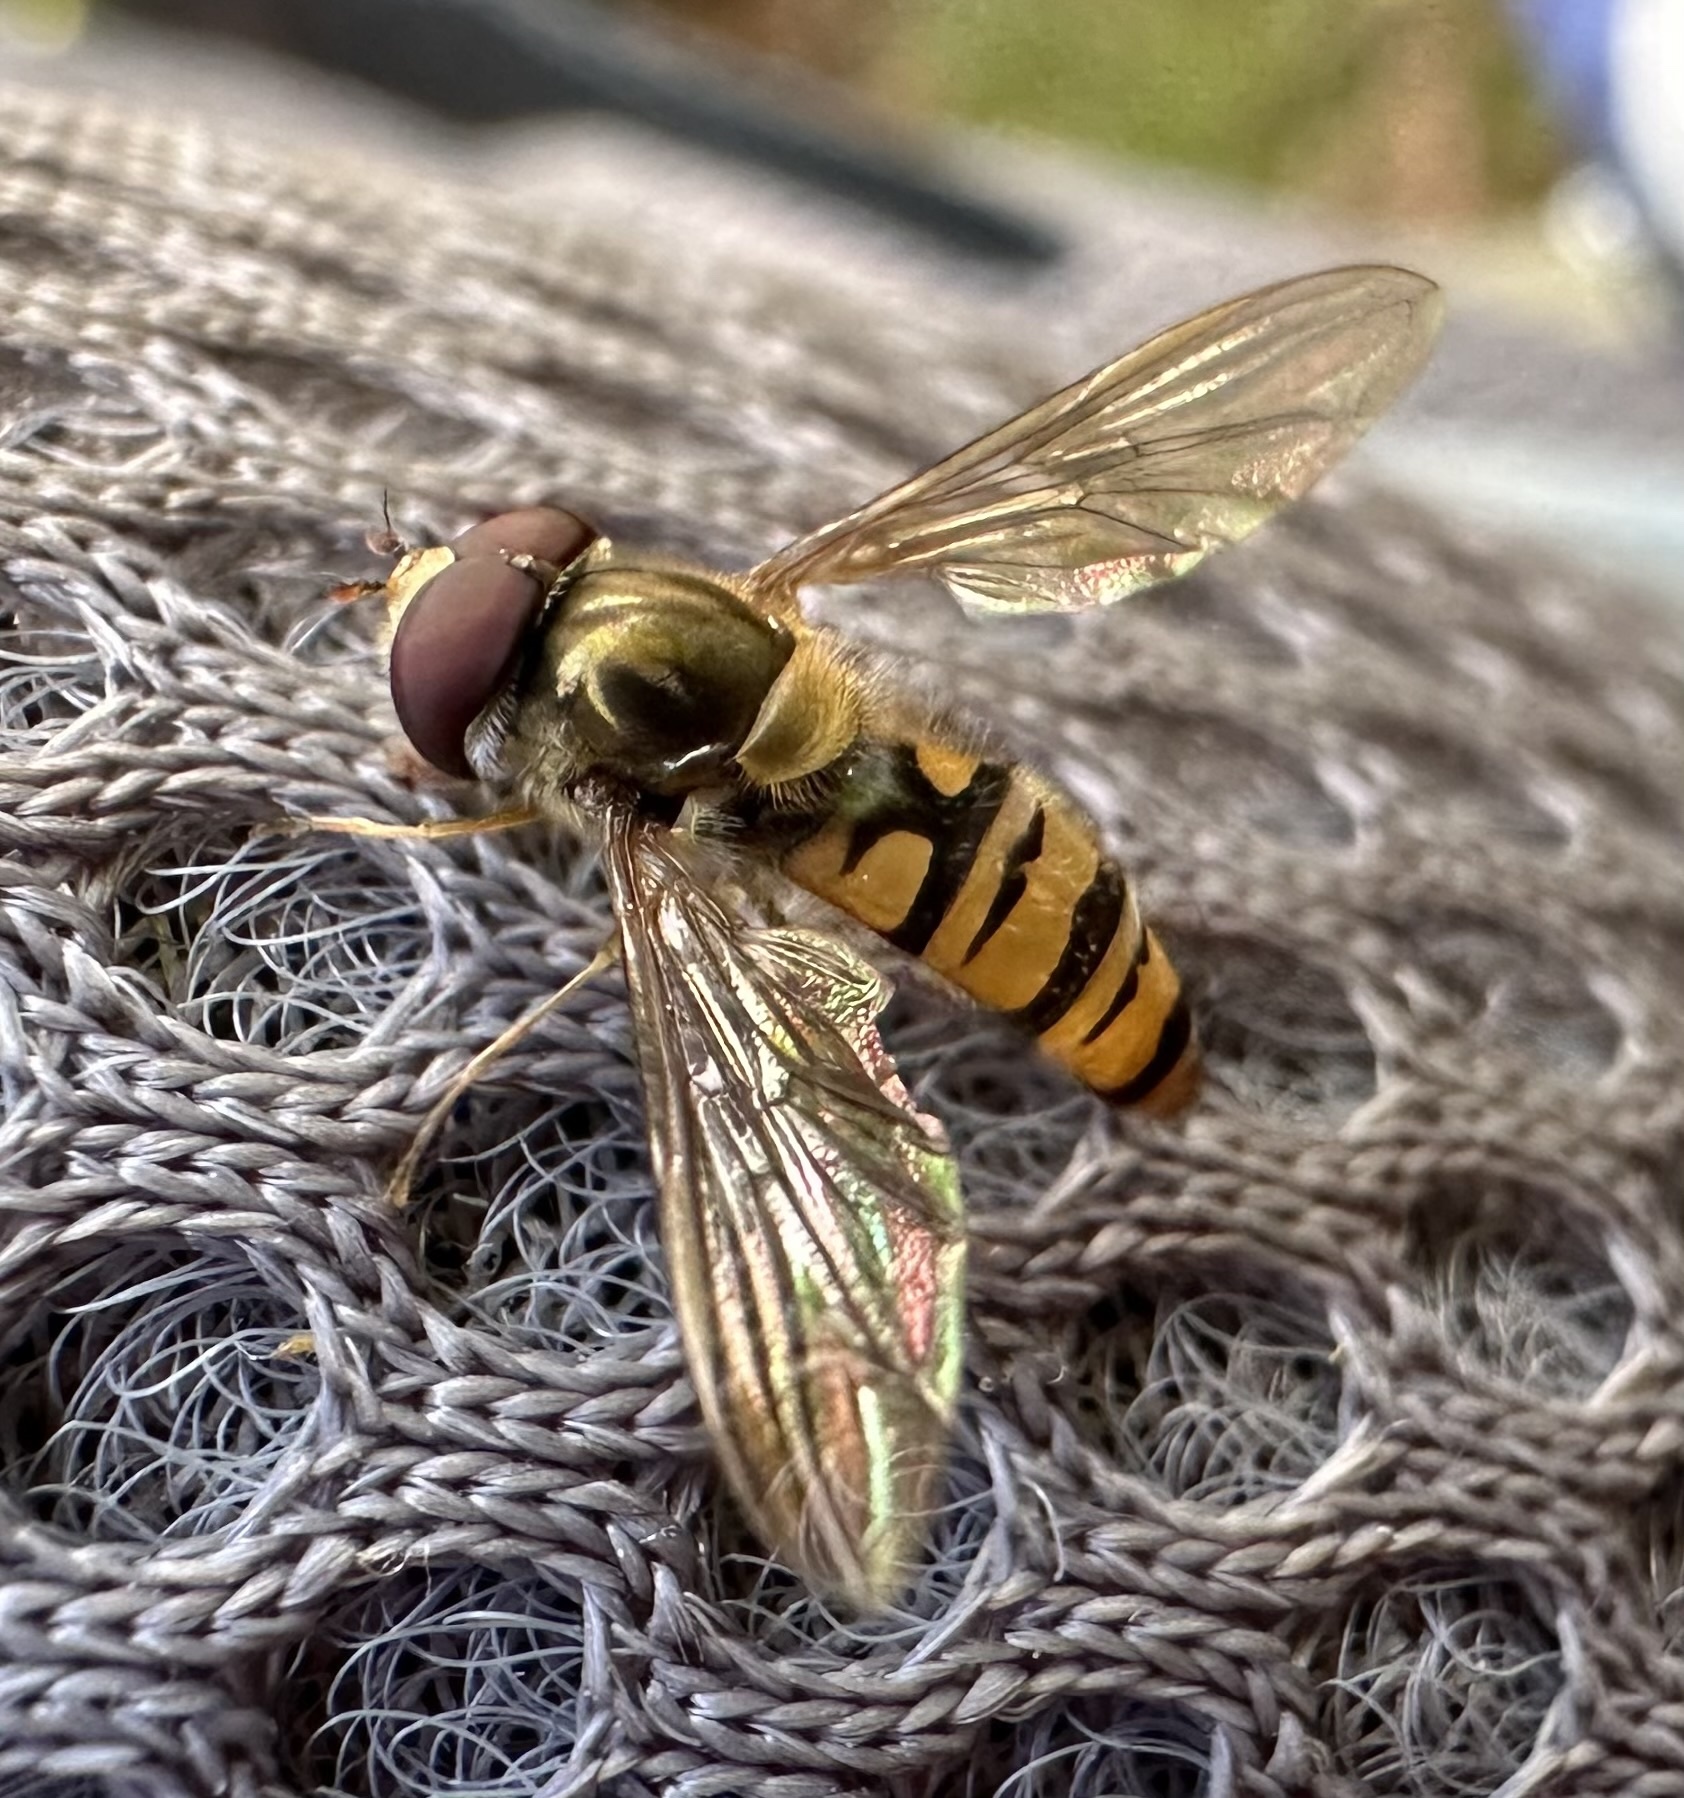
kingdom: Animalia
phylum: Arthropoda
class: Insecta
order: Diptera
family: Syrphidae
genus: Episyrphus
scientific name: Episyrphus balteatus
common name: Marmalade hoverfly
